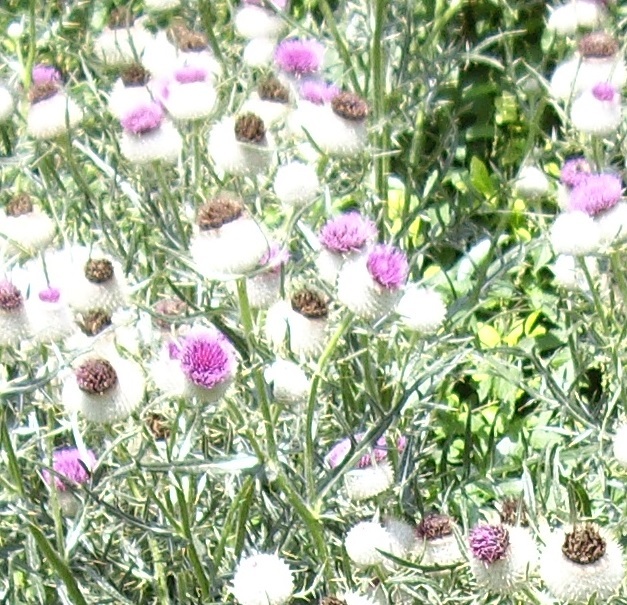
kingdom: Plantae
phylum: Tracheophyta
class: Magnoliopsida
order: Asterales
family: Asteraceae
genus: Lophiolepis
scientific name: Lophiolepis eriophora
